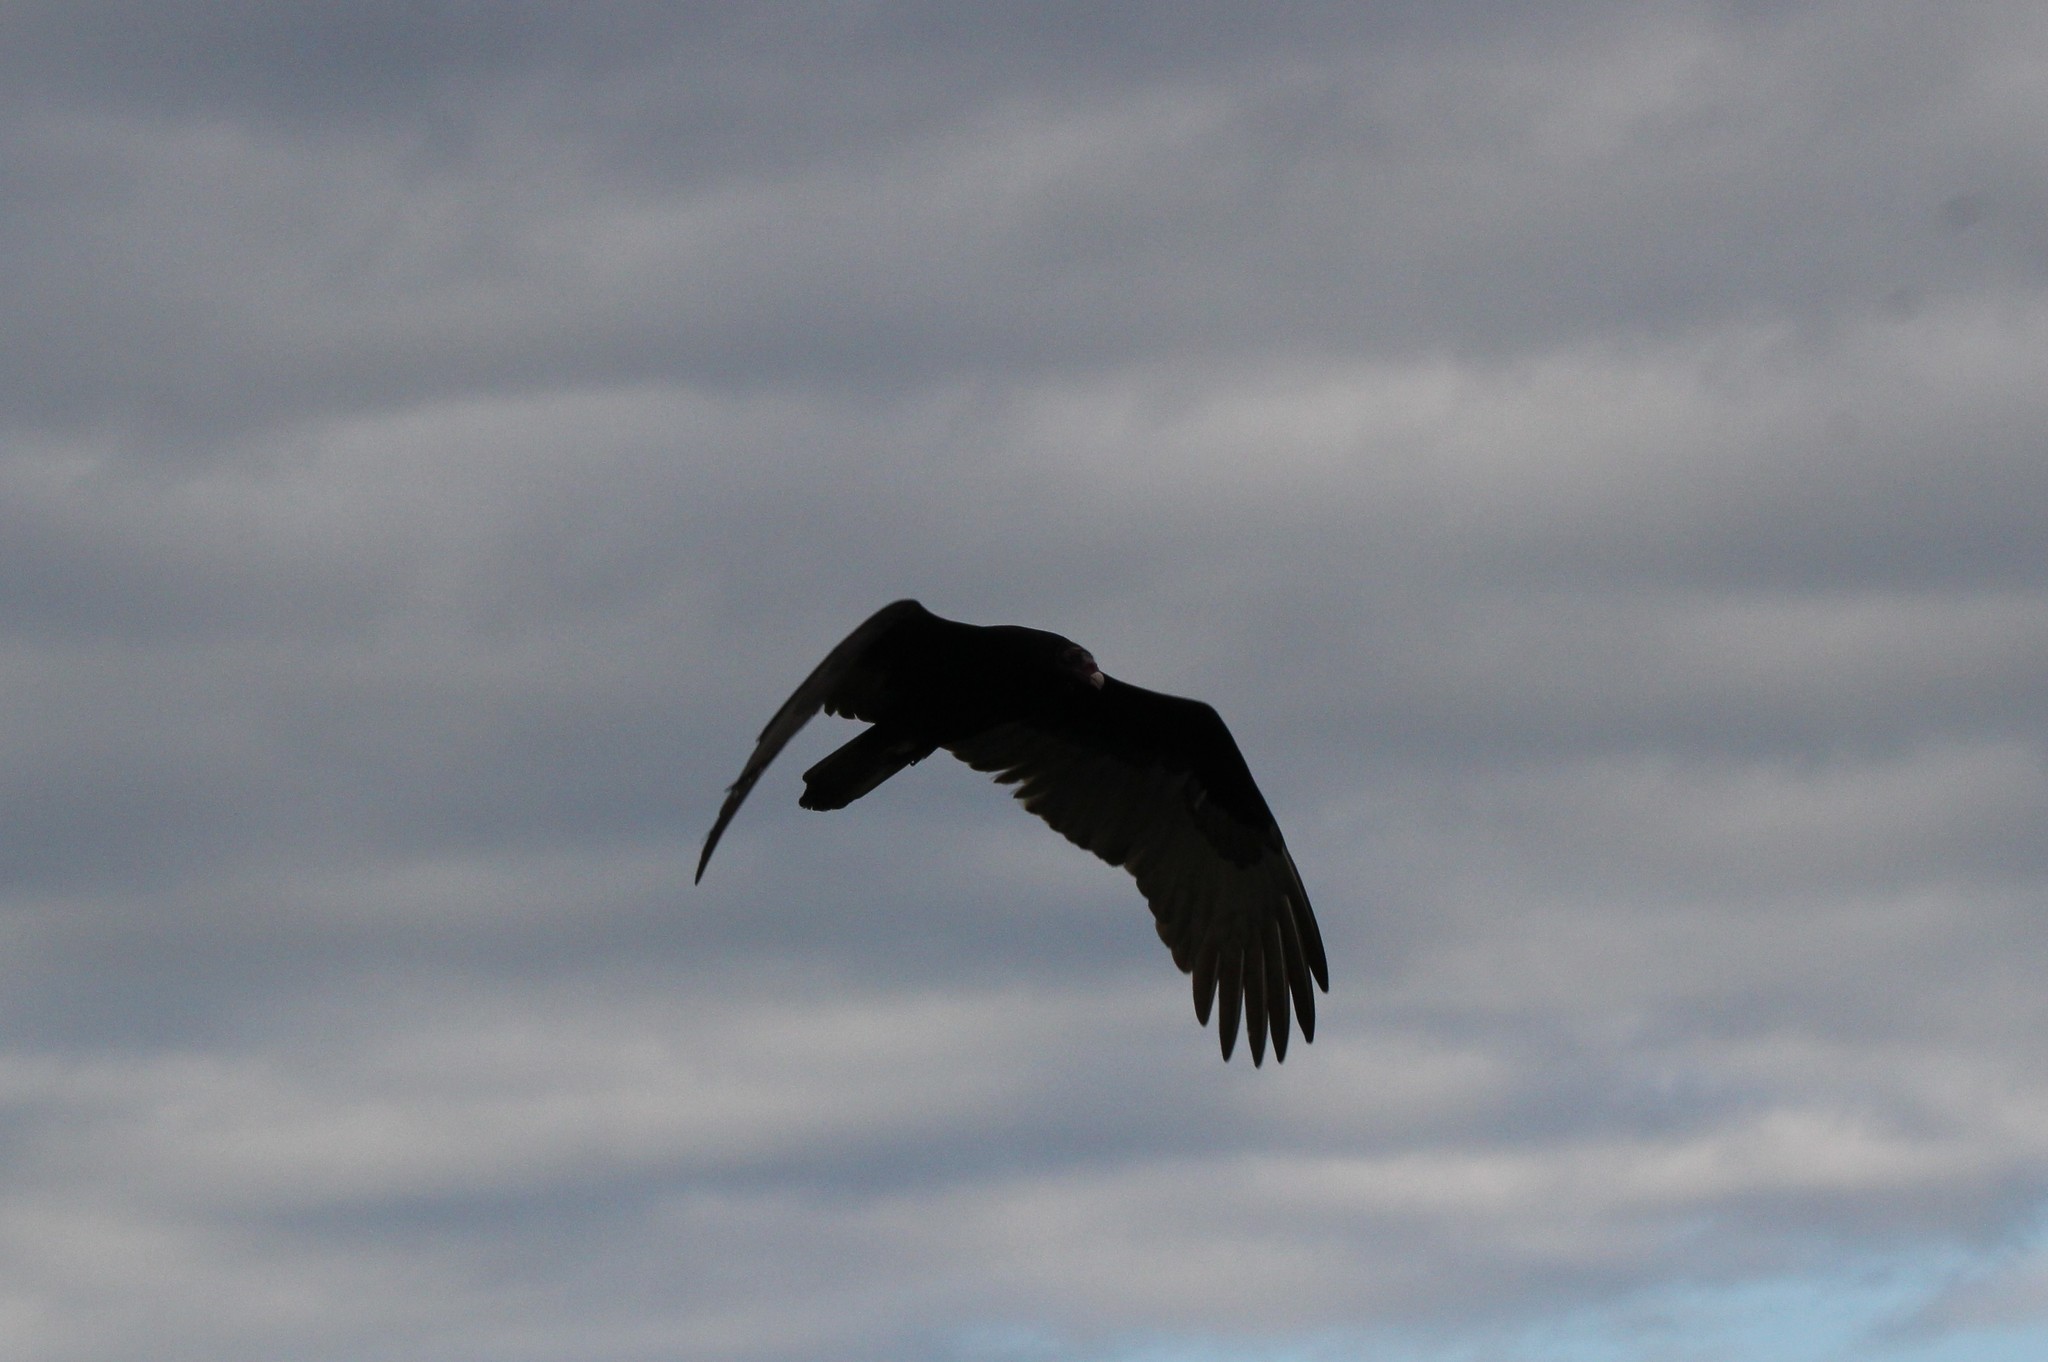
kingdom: Animalia
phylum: Chordata
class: Aves
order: Accipitriformes
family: Cathartidae
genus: Cathartes
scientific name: Cathartes aura
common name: Turkey vulture
